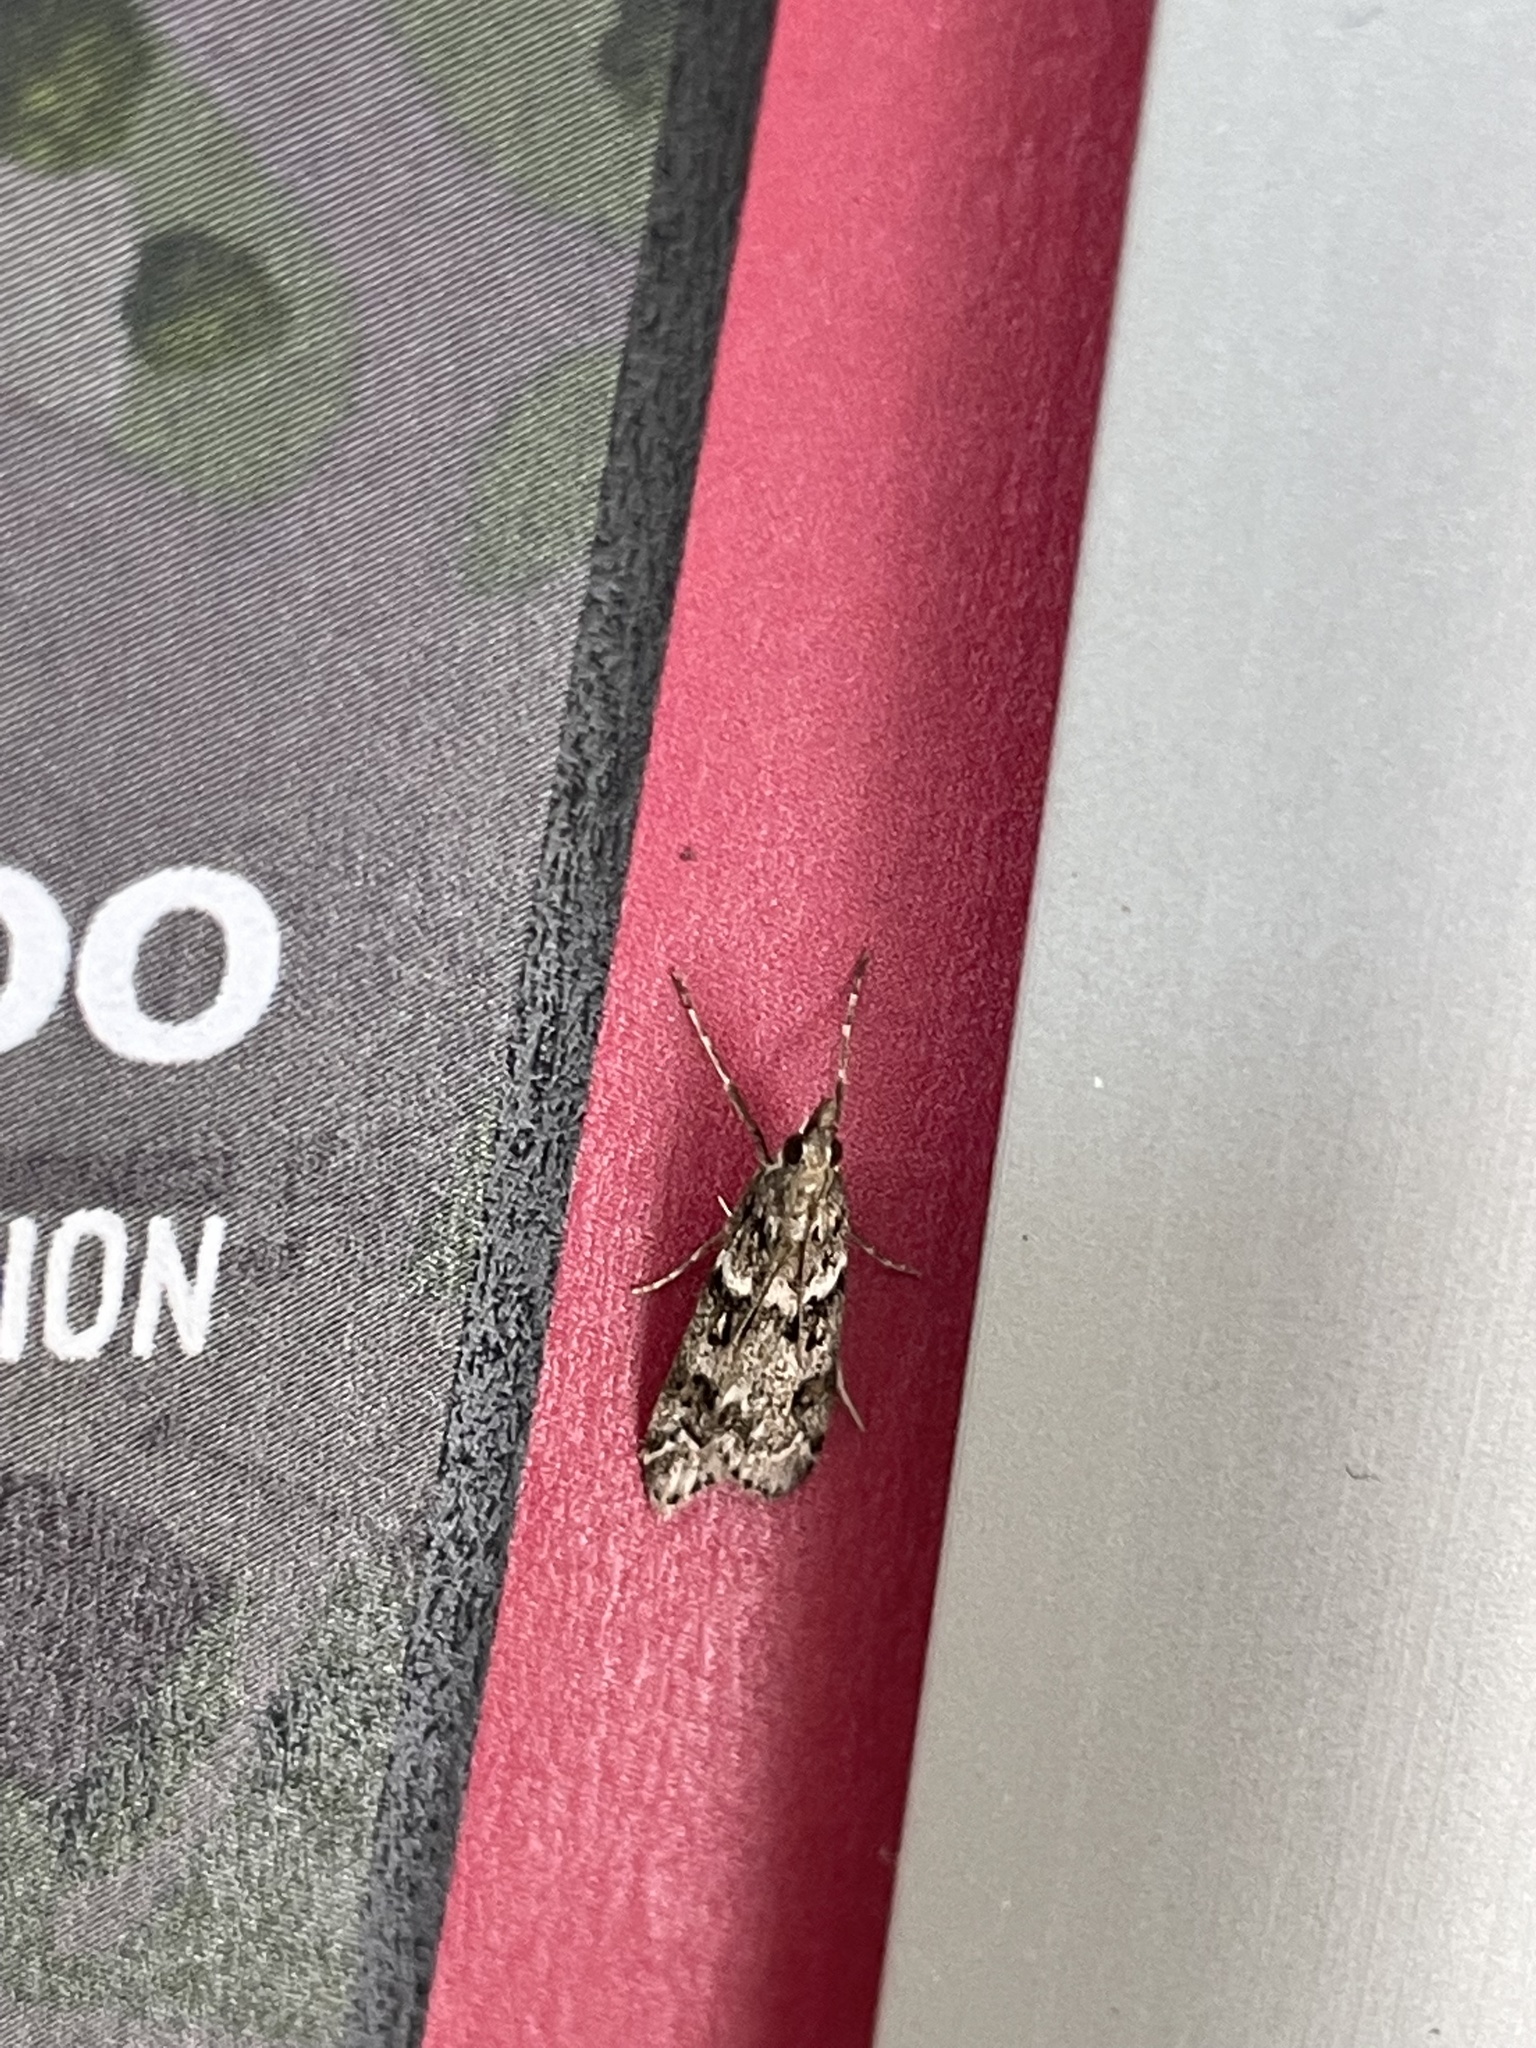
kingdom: Animalia
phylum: Arthropoda
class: Insecta
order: Lepidoptera
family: Crambidae
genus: Eudonia
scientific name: Eudonia mercurella
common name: Small grey
